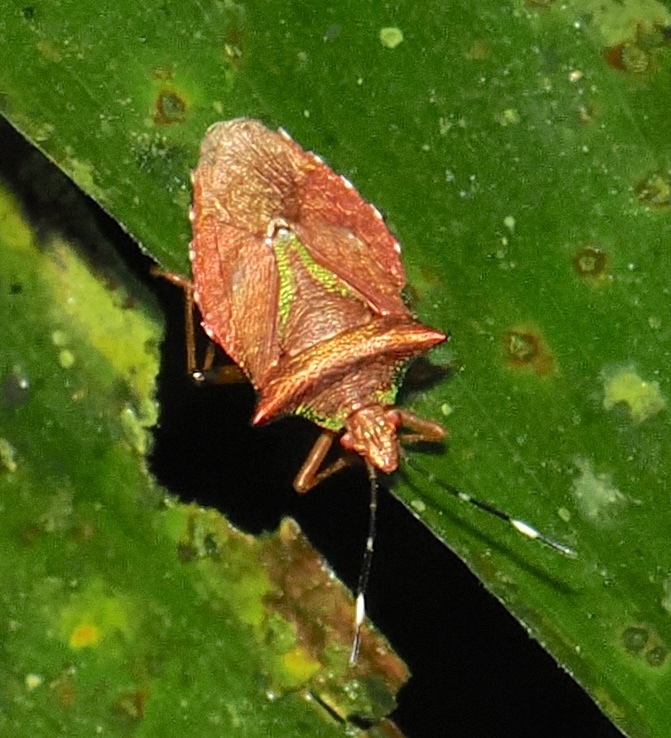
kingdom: Animalia
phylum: Arthropoda
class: Insecta
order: Hemiptera
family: Pentatomidae
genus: Myota
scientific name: Myota aerea
